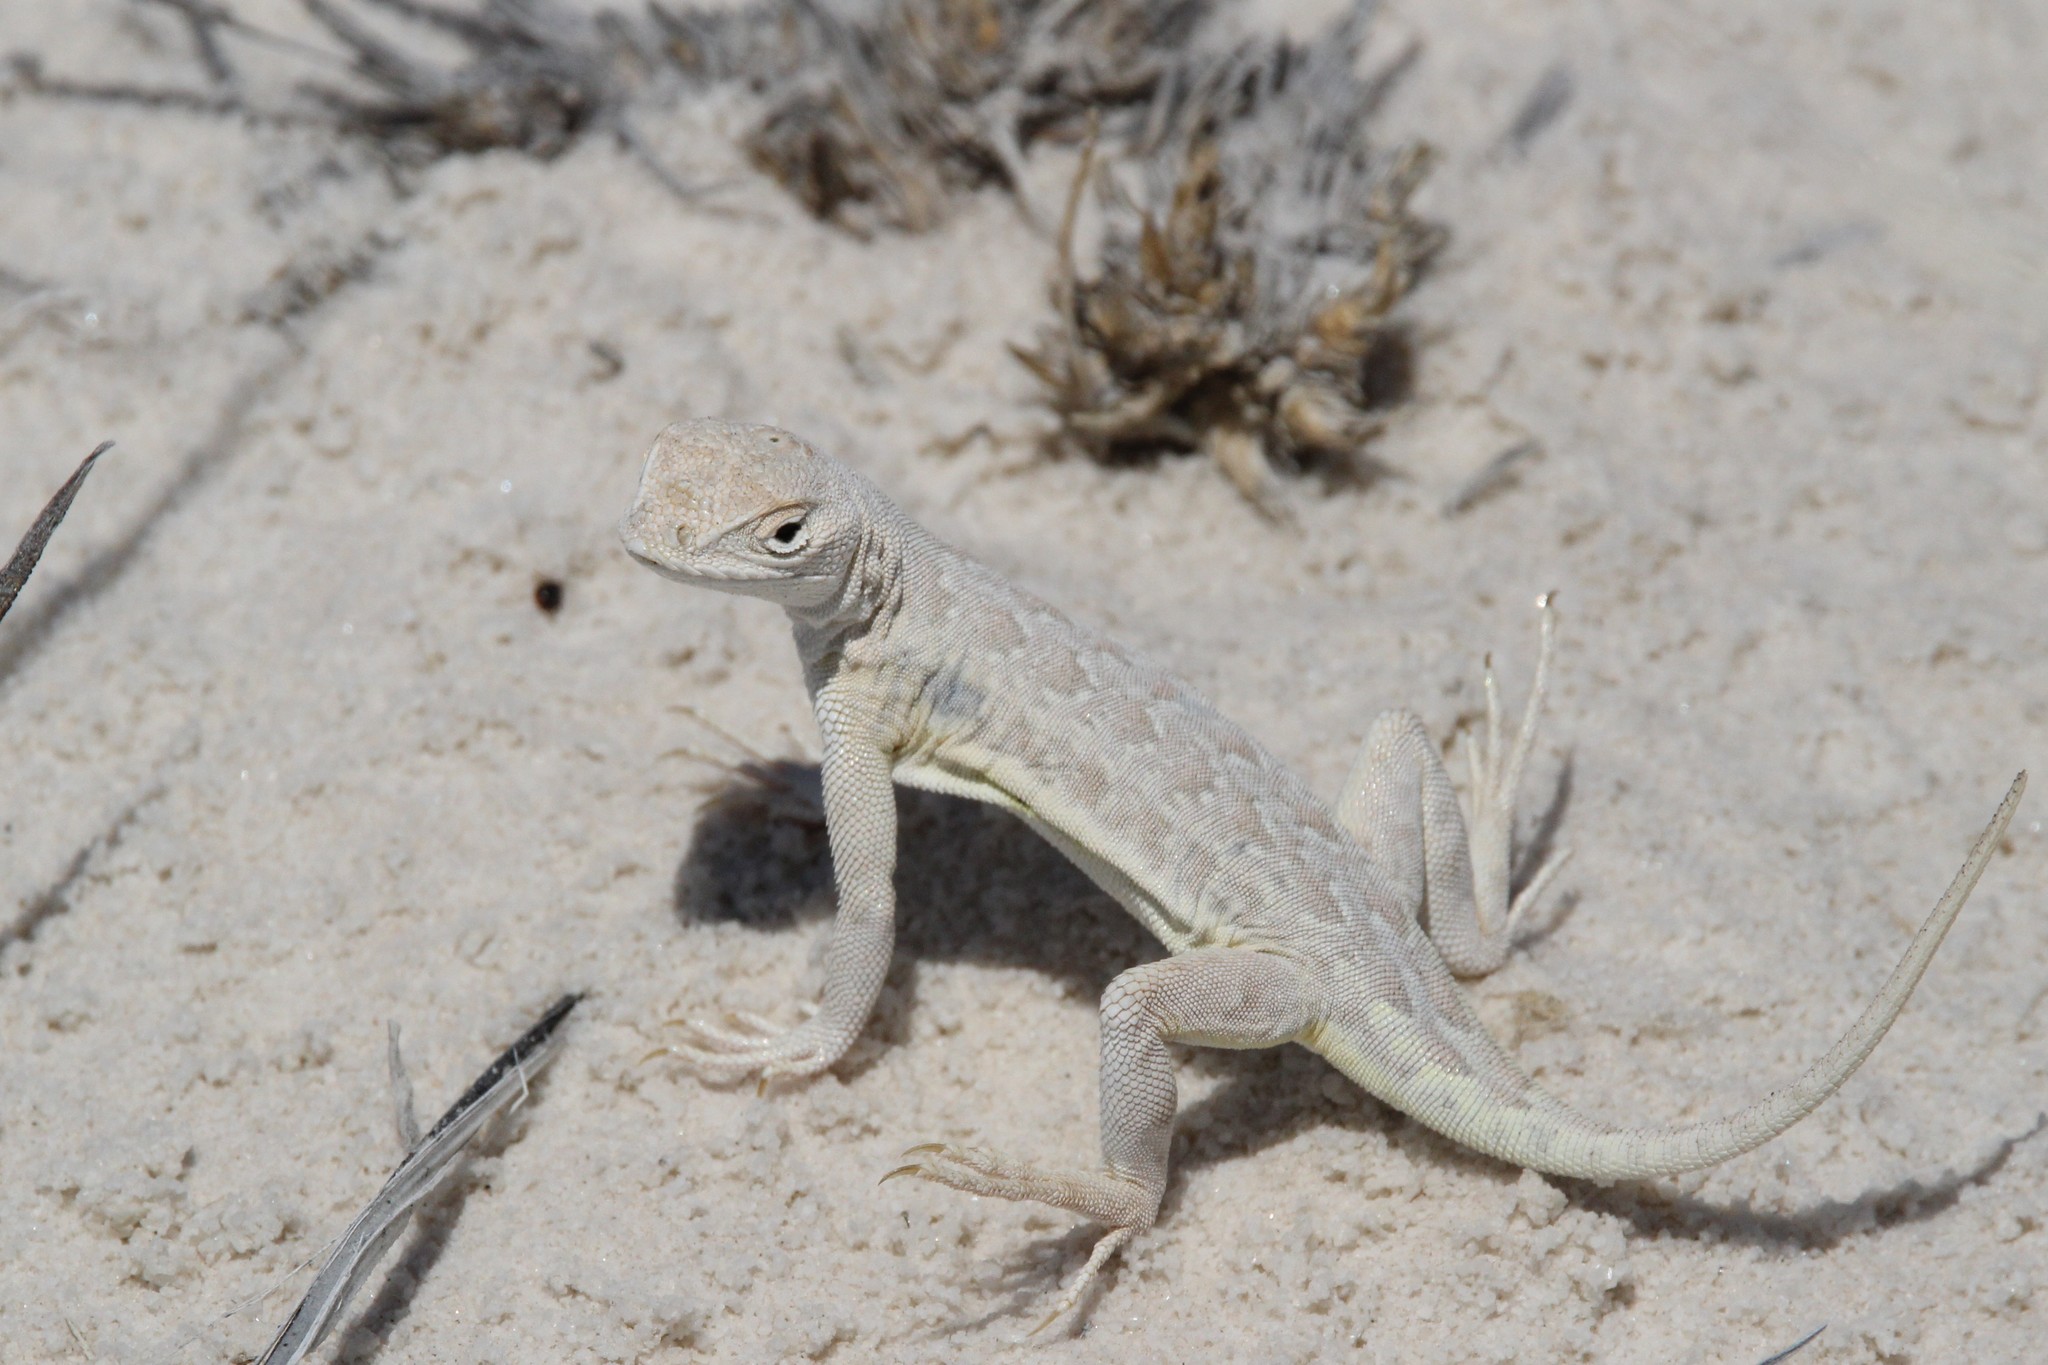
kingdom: Animalia
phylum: Chordata
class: Squamata
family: Phrynosomatidae
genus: Holbrookia
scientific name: Holbrookia maculata
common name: Lesser earless lizard
